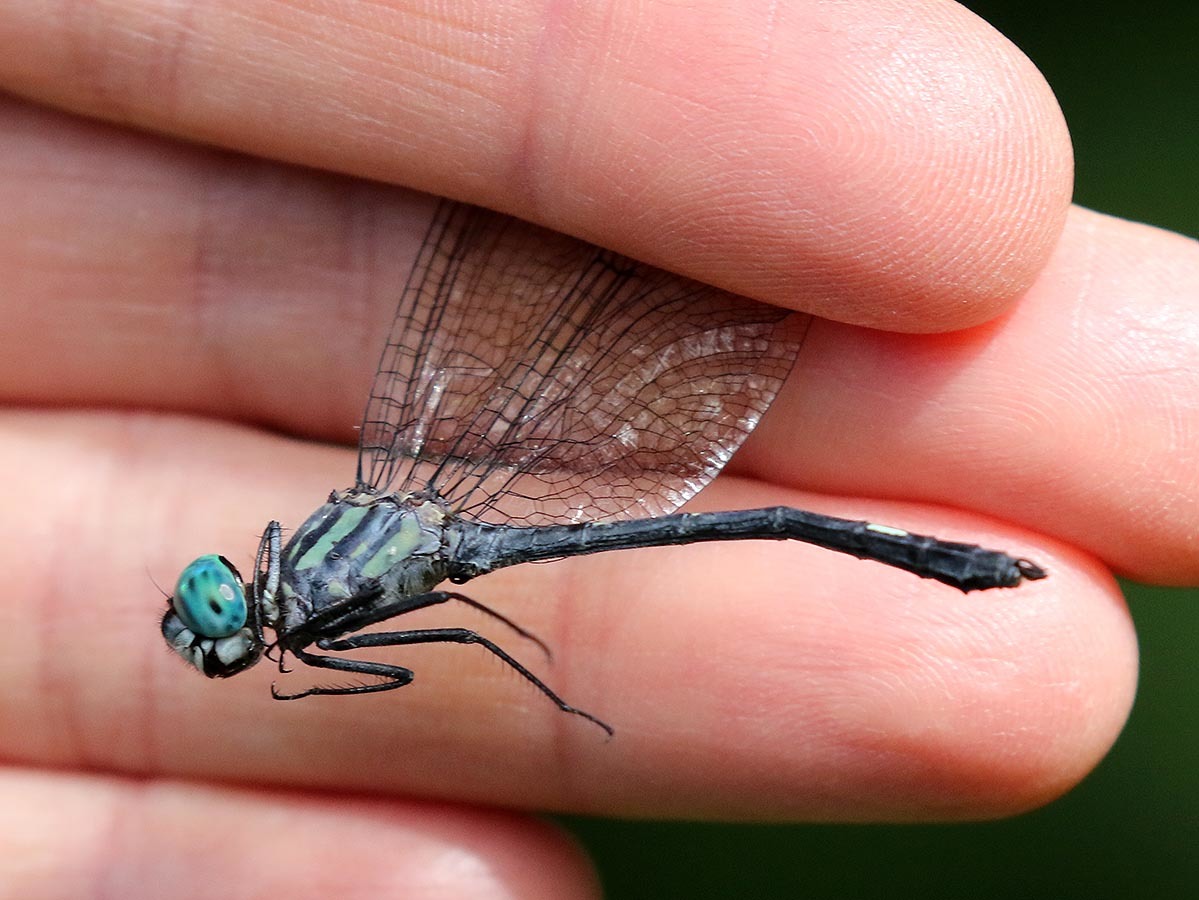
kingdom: Animalia
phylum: Arthropoda
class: Insecta
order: Odonata
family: Libellulidae
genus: Micrathyria
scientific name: Micrathyria venezuelae
